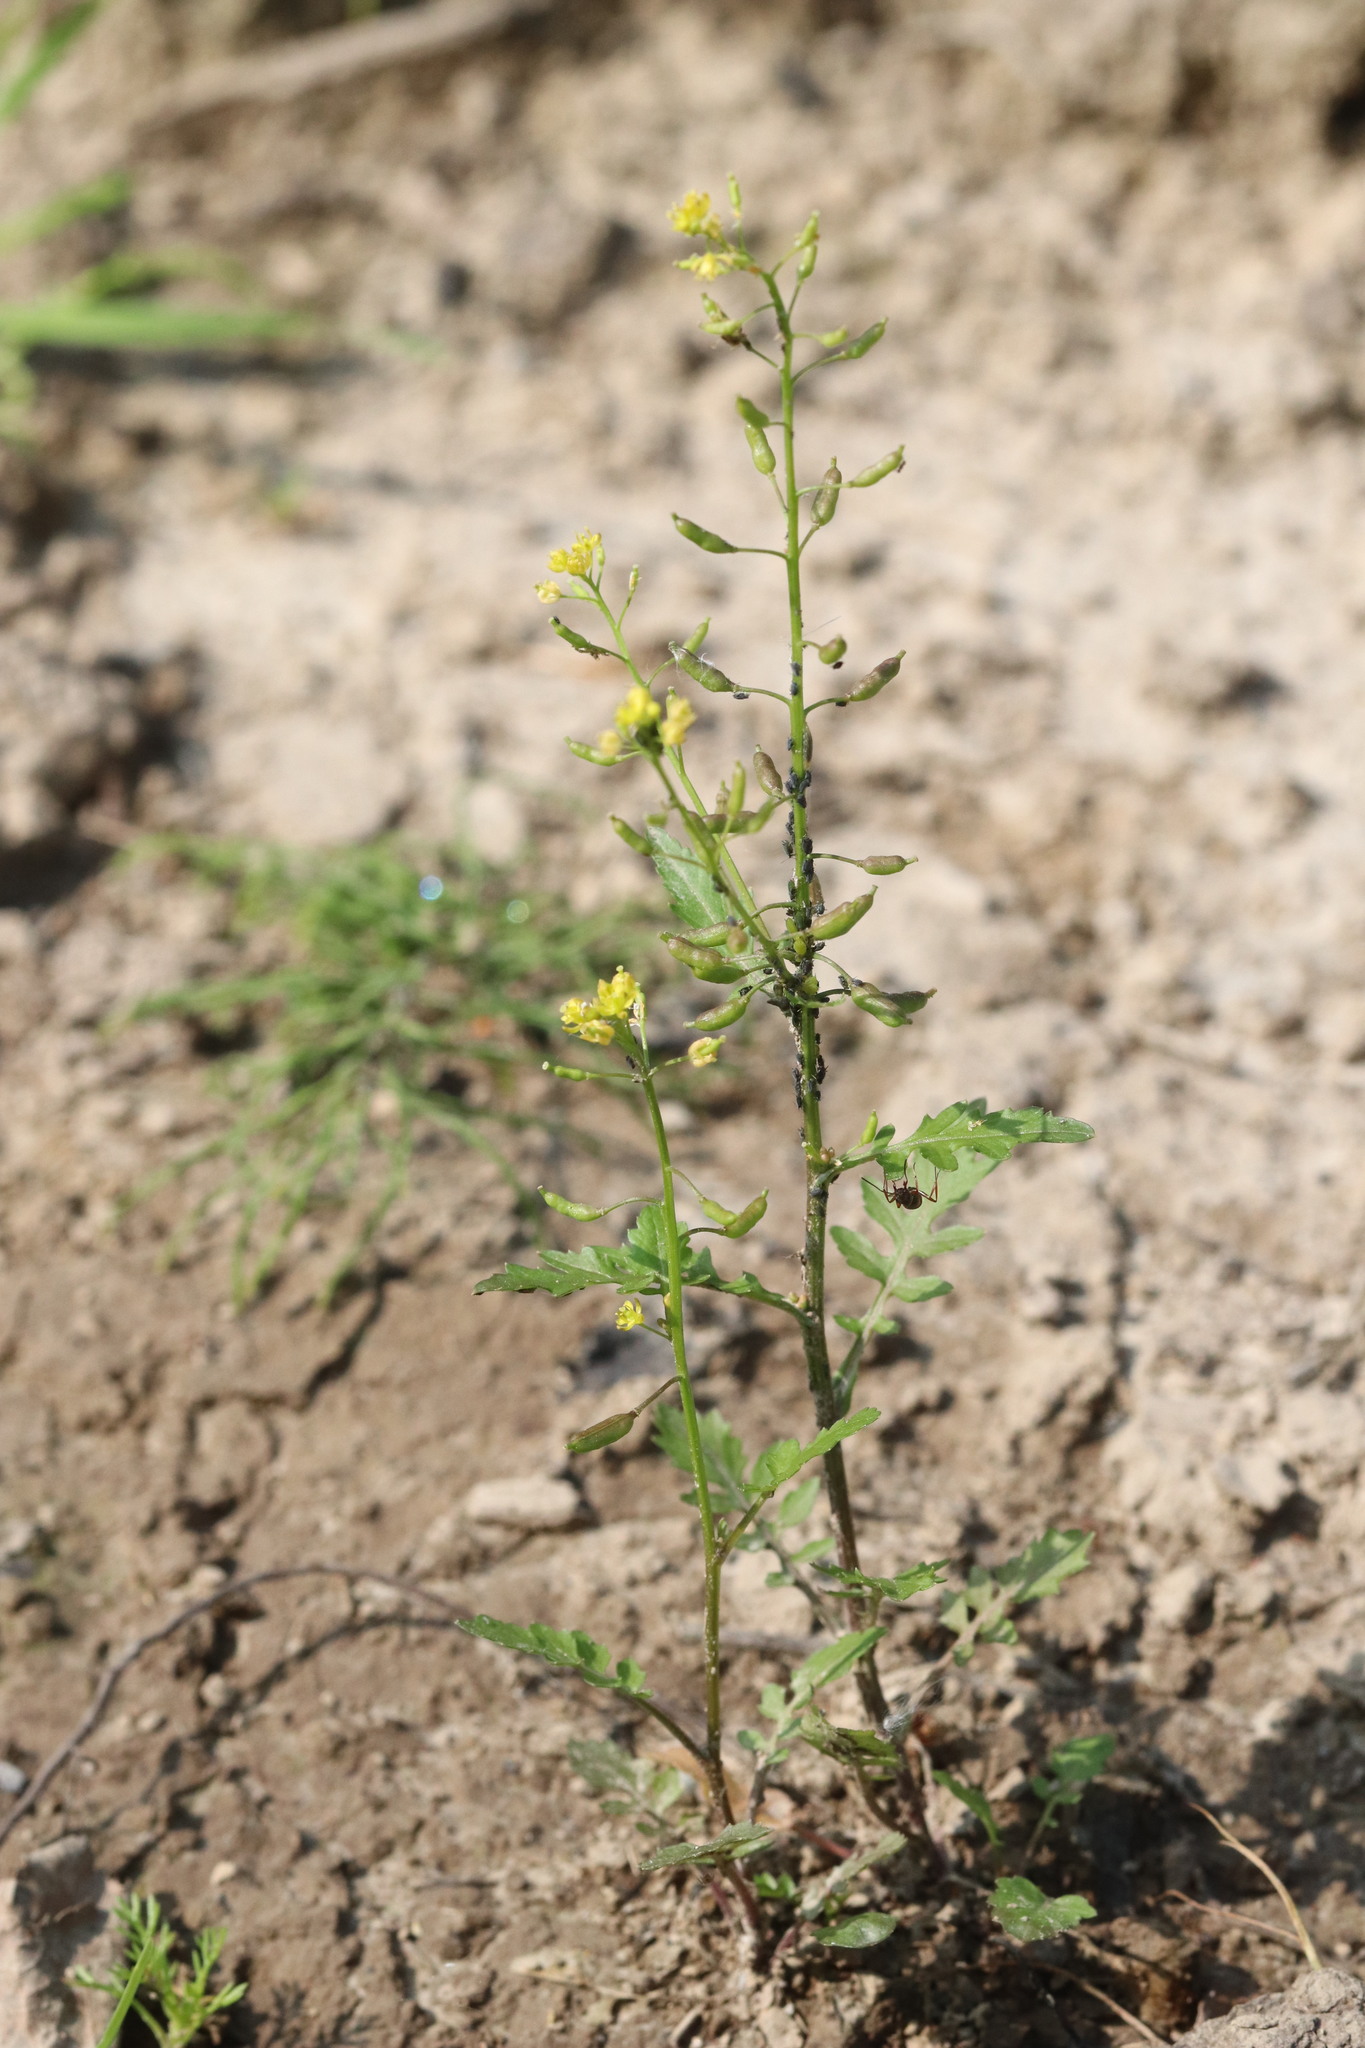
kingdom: Plantae
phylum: Tracheophyta
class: Magnoliopsida
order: Brassicales
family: Brassicaceae
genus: Rorippa
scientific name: Rorippa palustris
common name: Marsh yellow-cress
